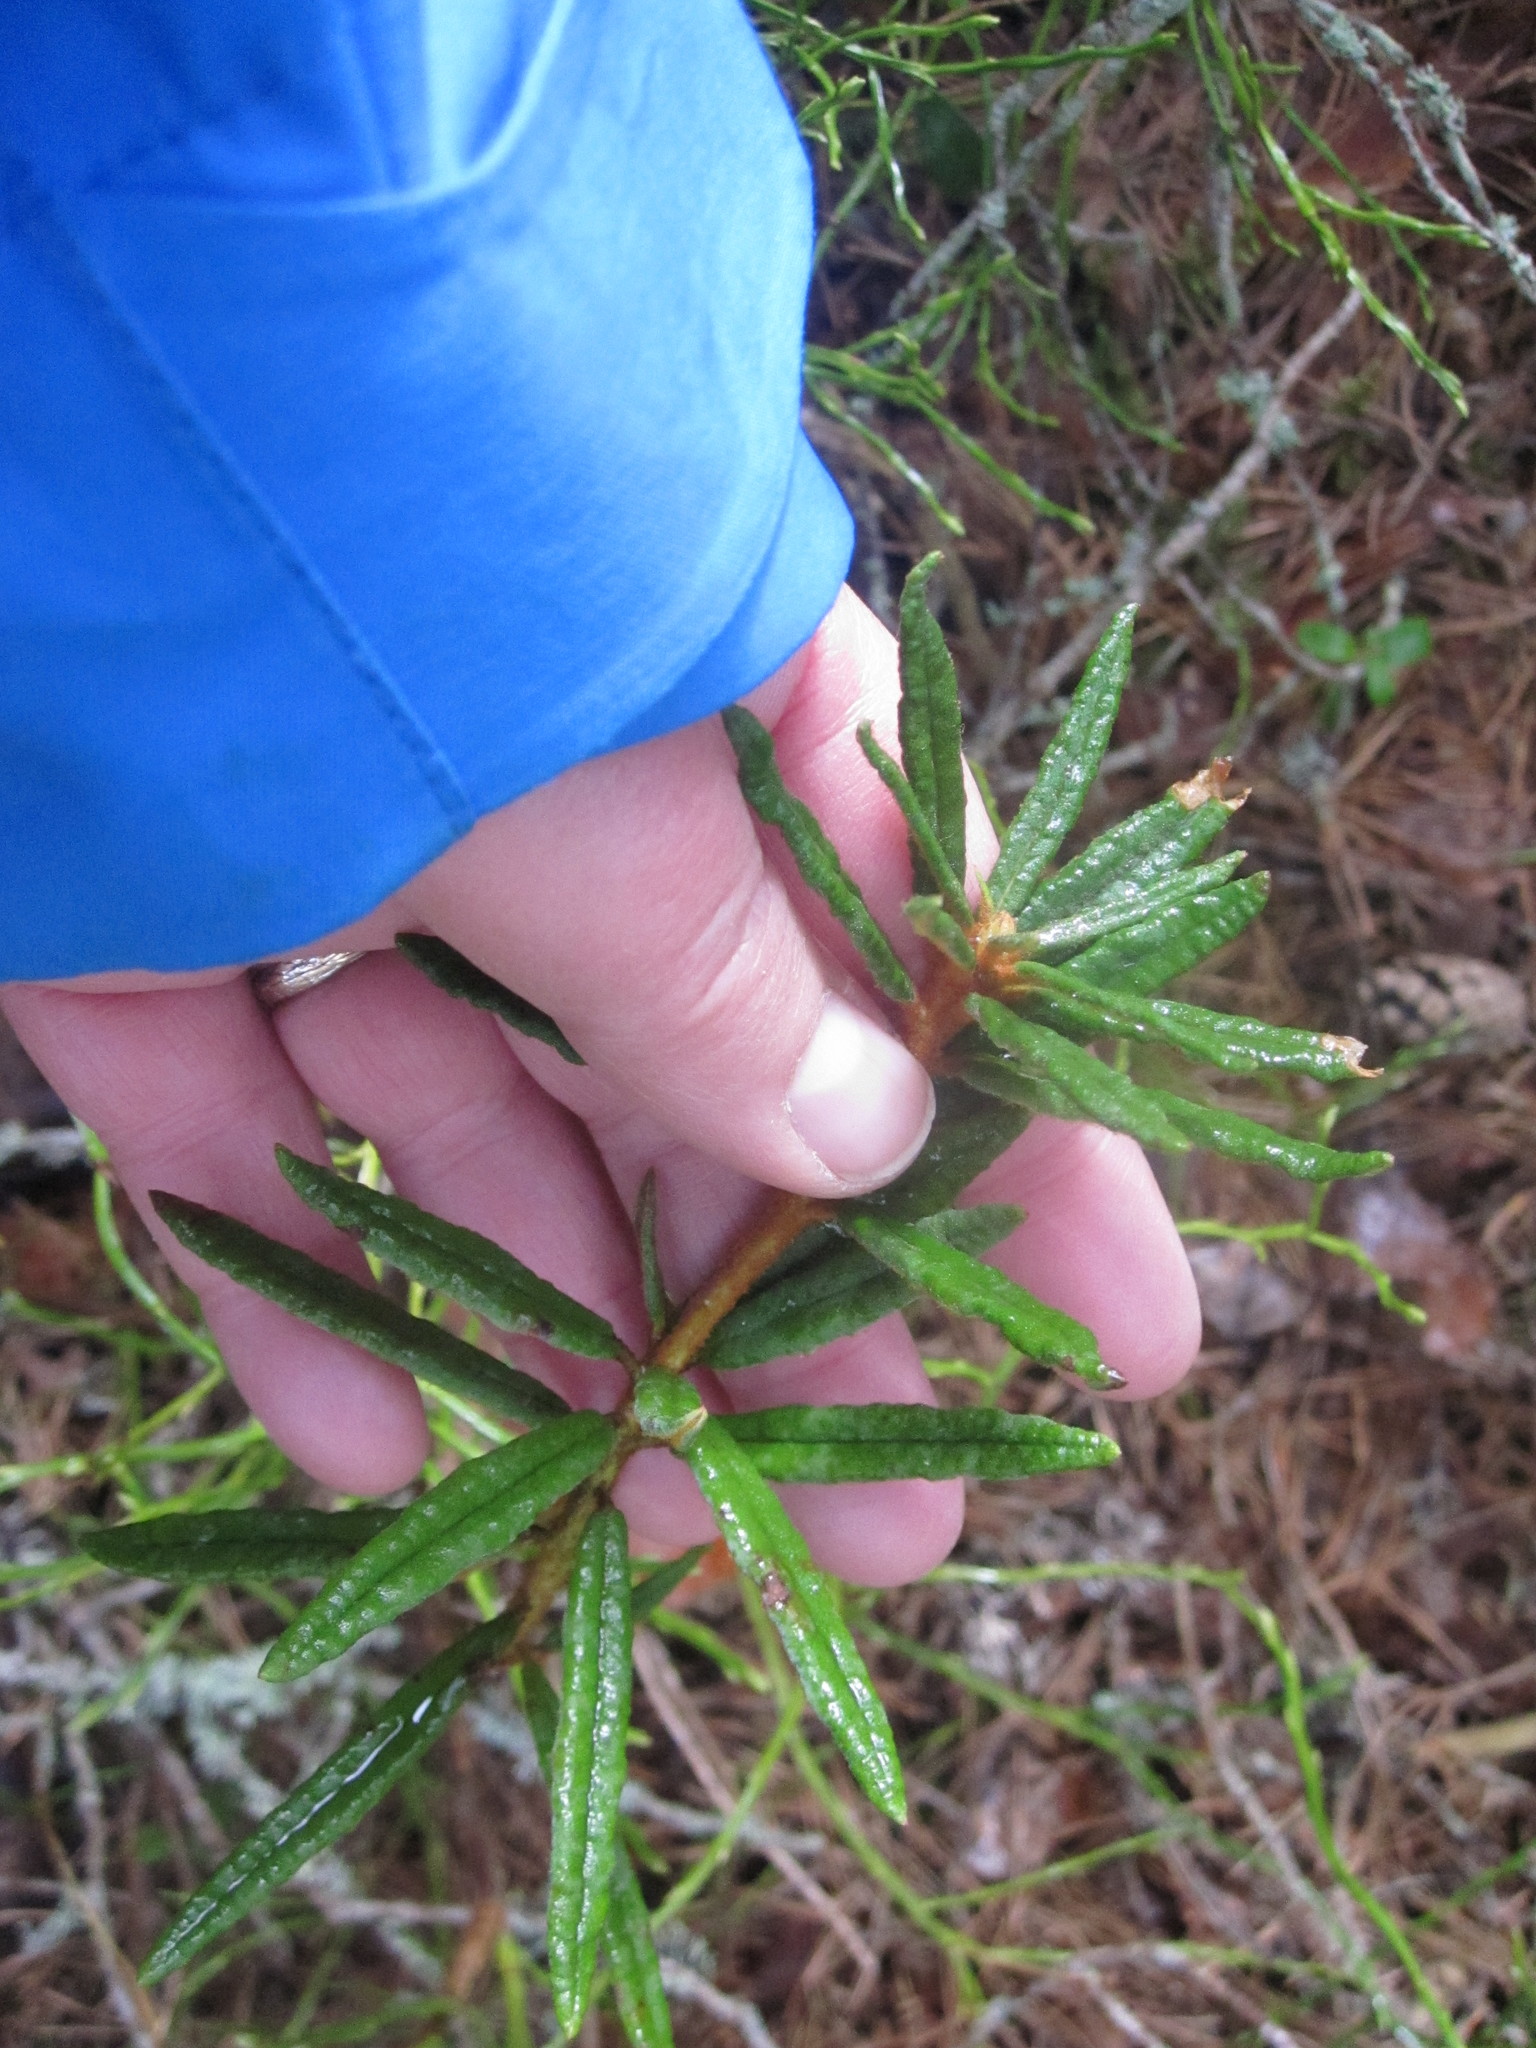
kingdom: Plantae
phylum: Tracheophyta
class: Magnoliopsida
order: Ericales
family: Ericaceae
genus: Rhododendron
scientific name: Rhododendron tomentosum
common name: Marsh labrador tea
